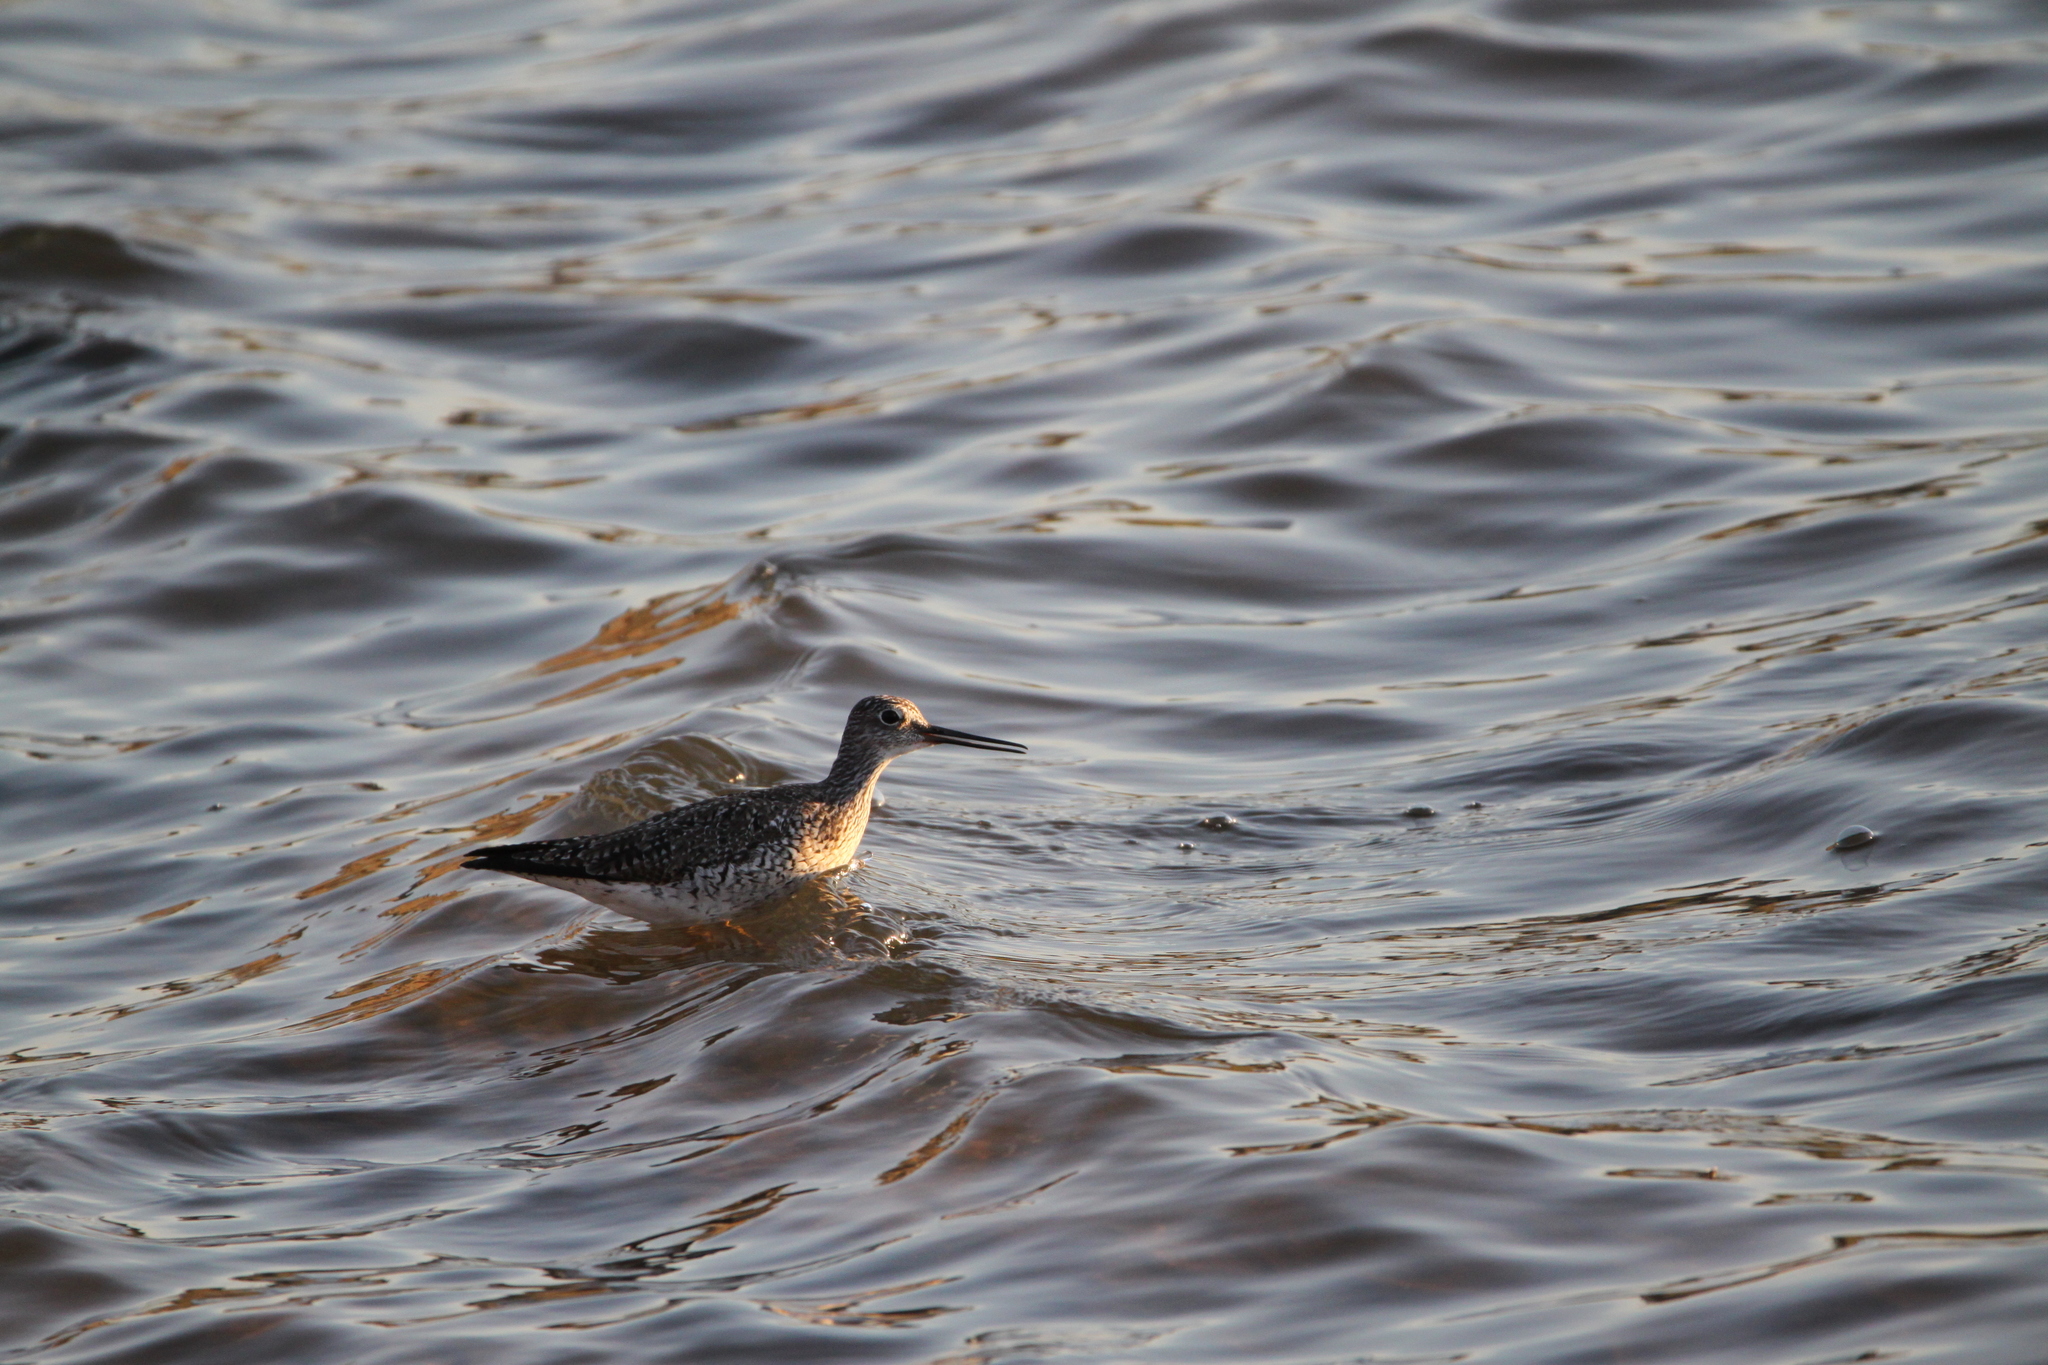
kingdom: Animalia
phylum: Chordata
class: Aves
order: Charadriiformes
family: Scolopacidae
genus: Tringa
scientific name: Tringa melanoleuca
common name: Greater yellowlegs
